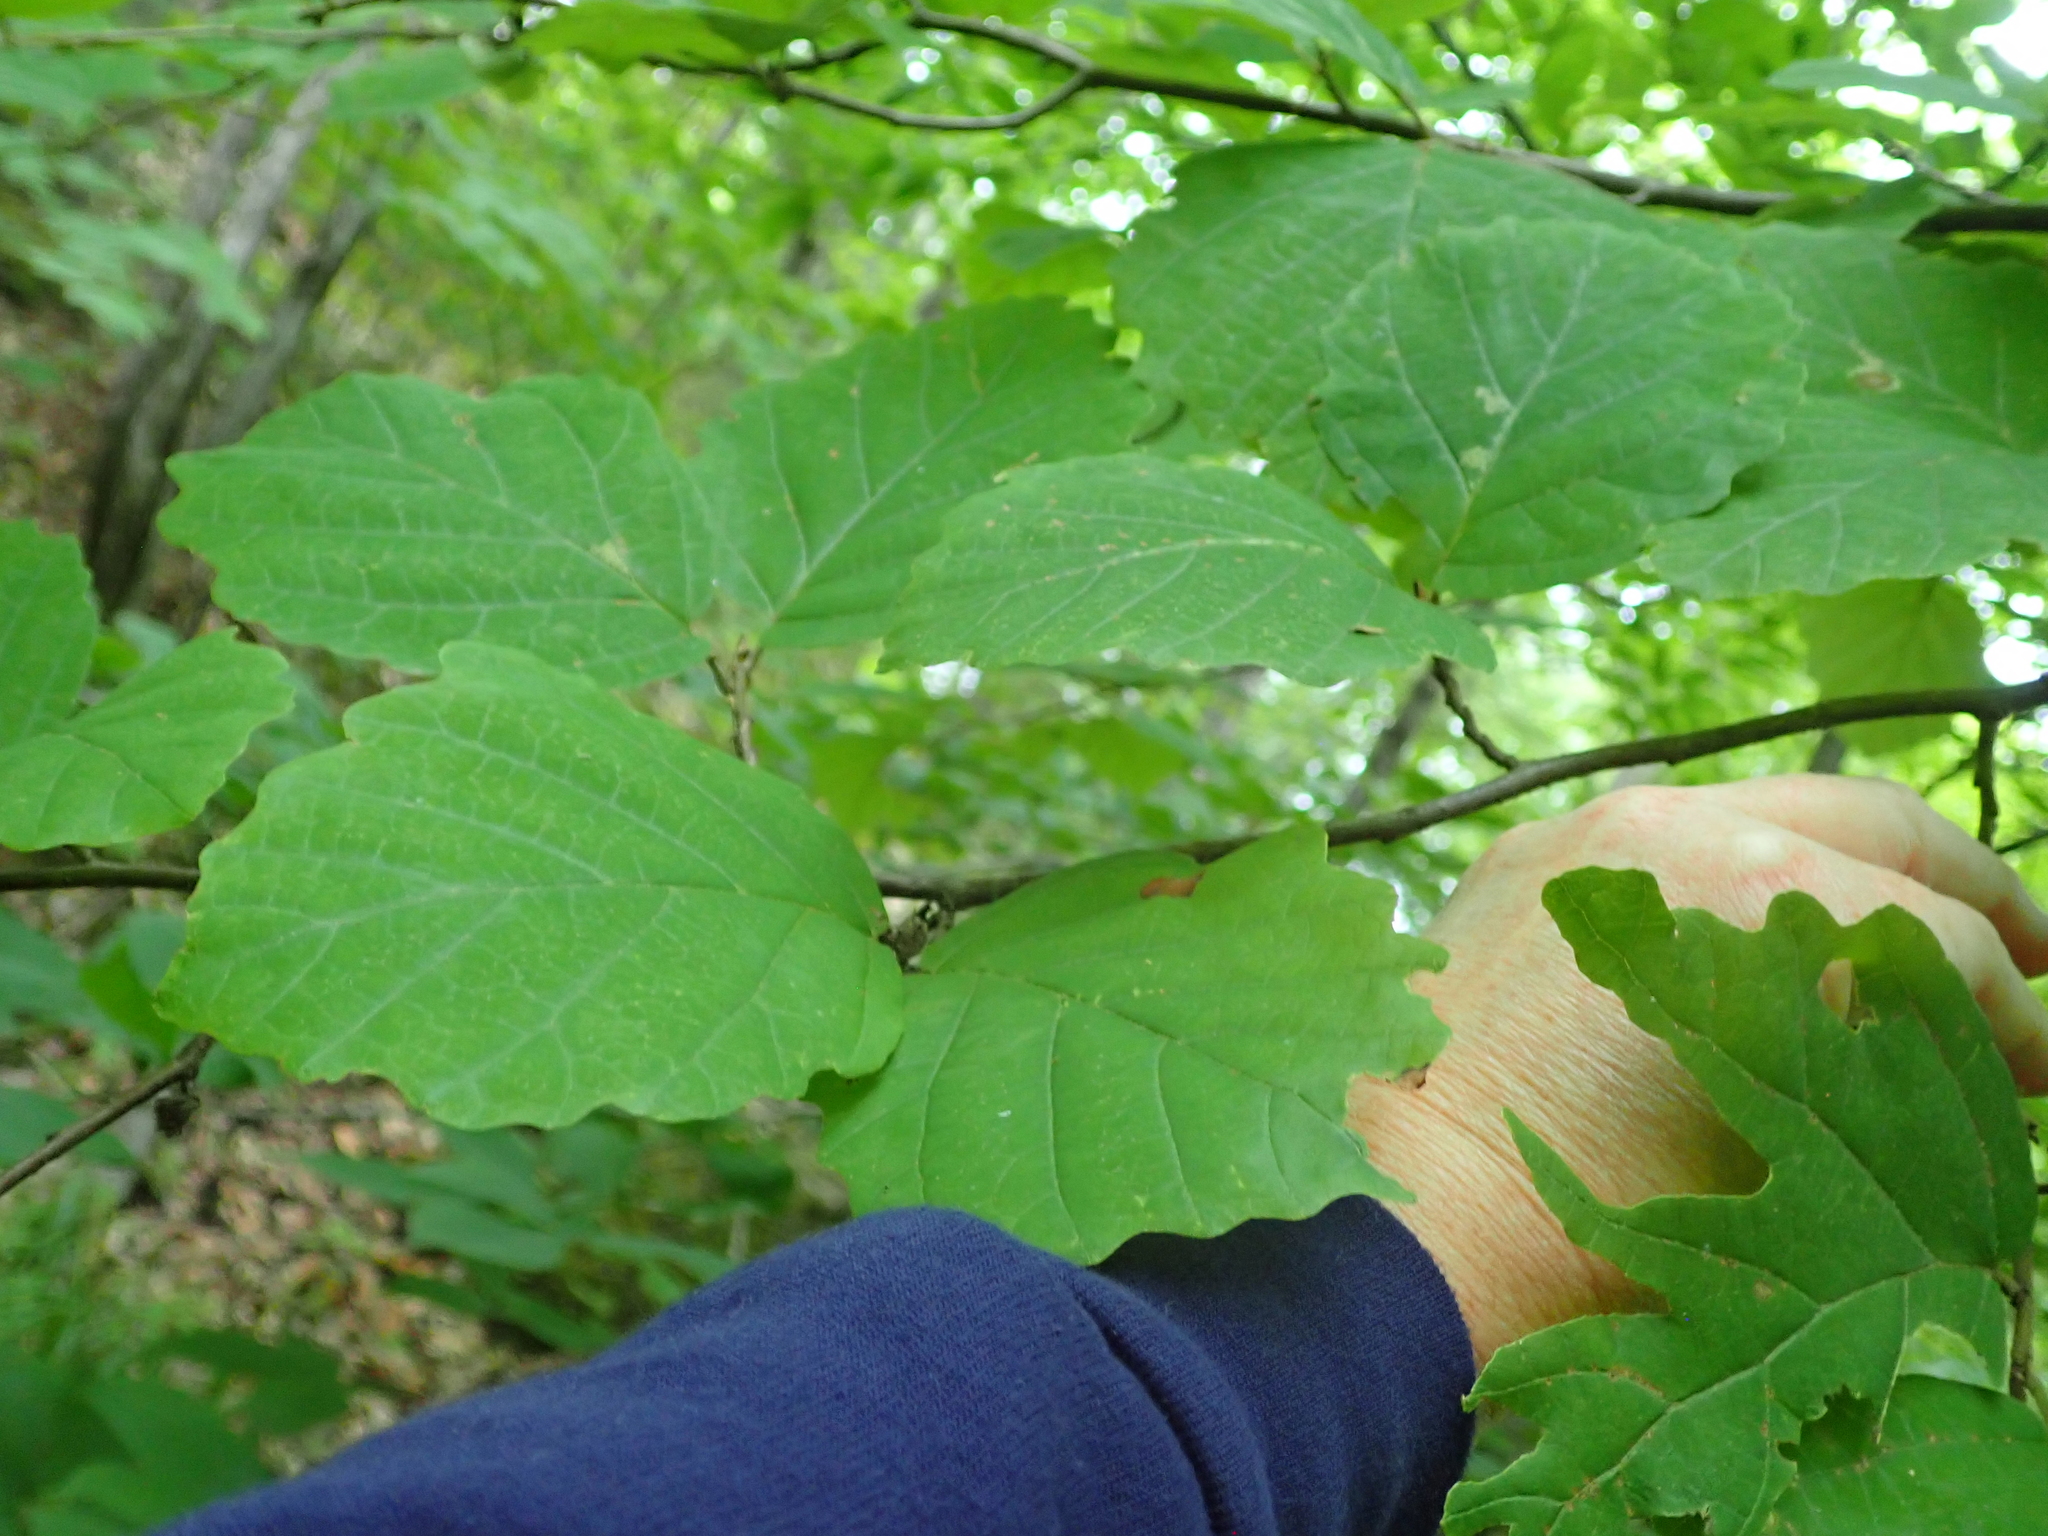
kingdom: Plantae
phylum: Tracheophyta
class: Magnoliopsida
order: Saxifragales
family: Hamamelidaceae
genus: Hamamelis
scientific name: Hamamelis virginiana
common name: Witch-hazel
